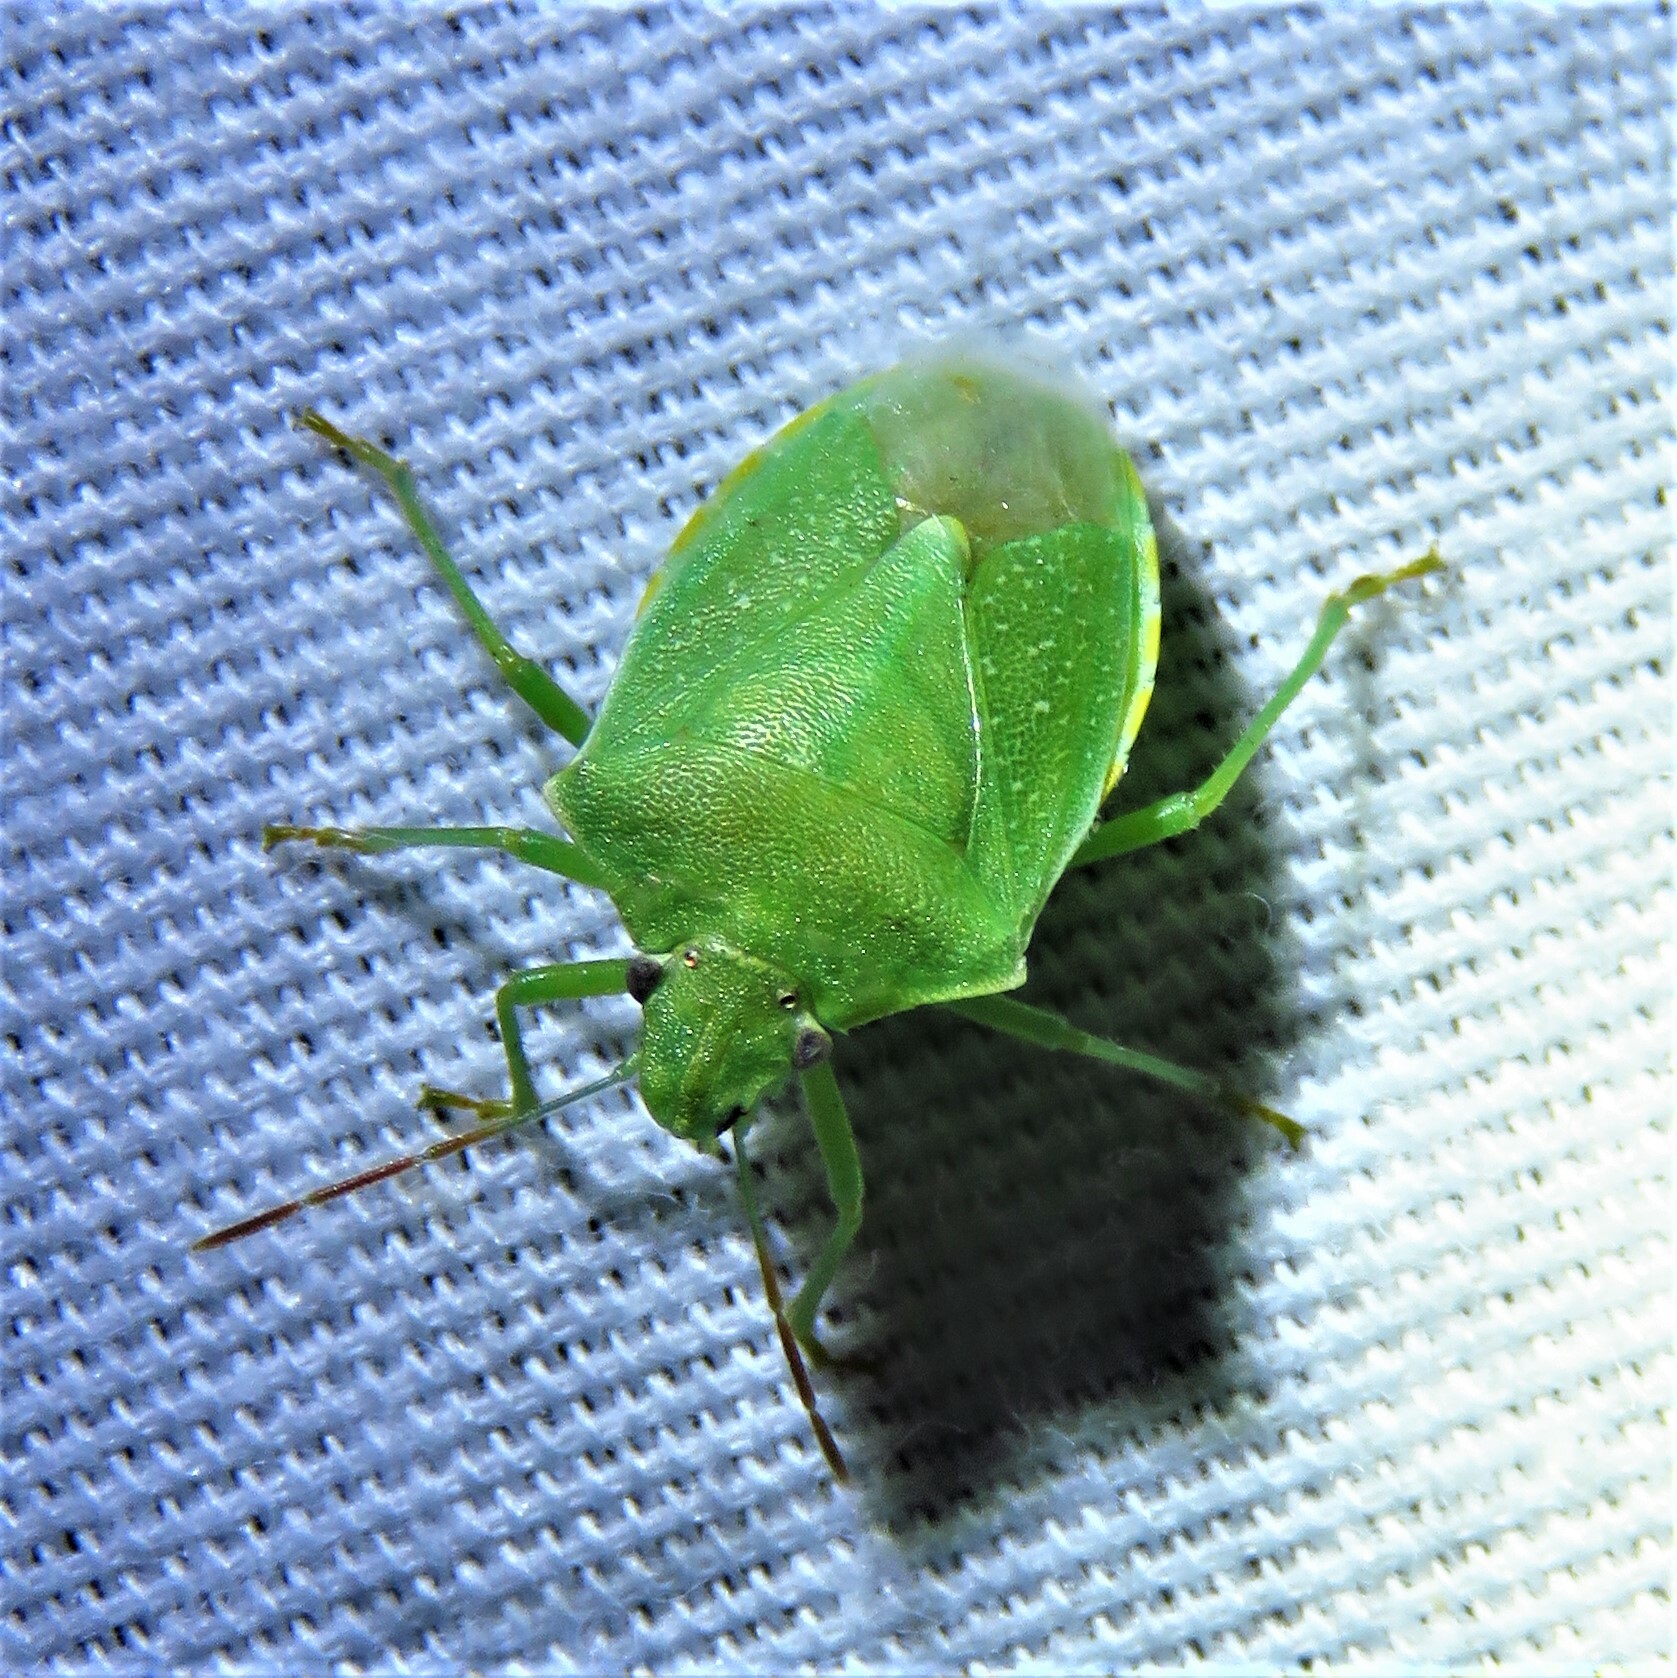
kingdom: Animalia
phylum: Arthropoda
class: Insecta
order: Hemiptera
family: Pentatomidae
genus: Thyanta
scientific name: Thyanta custator
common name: Stink bug
